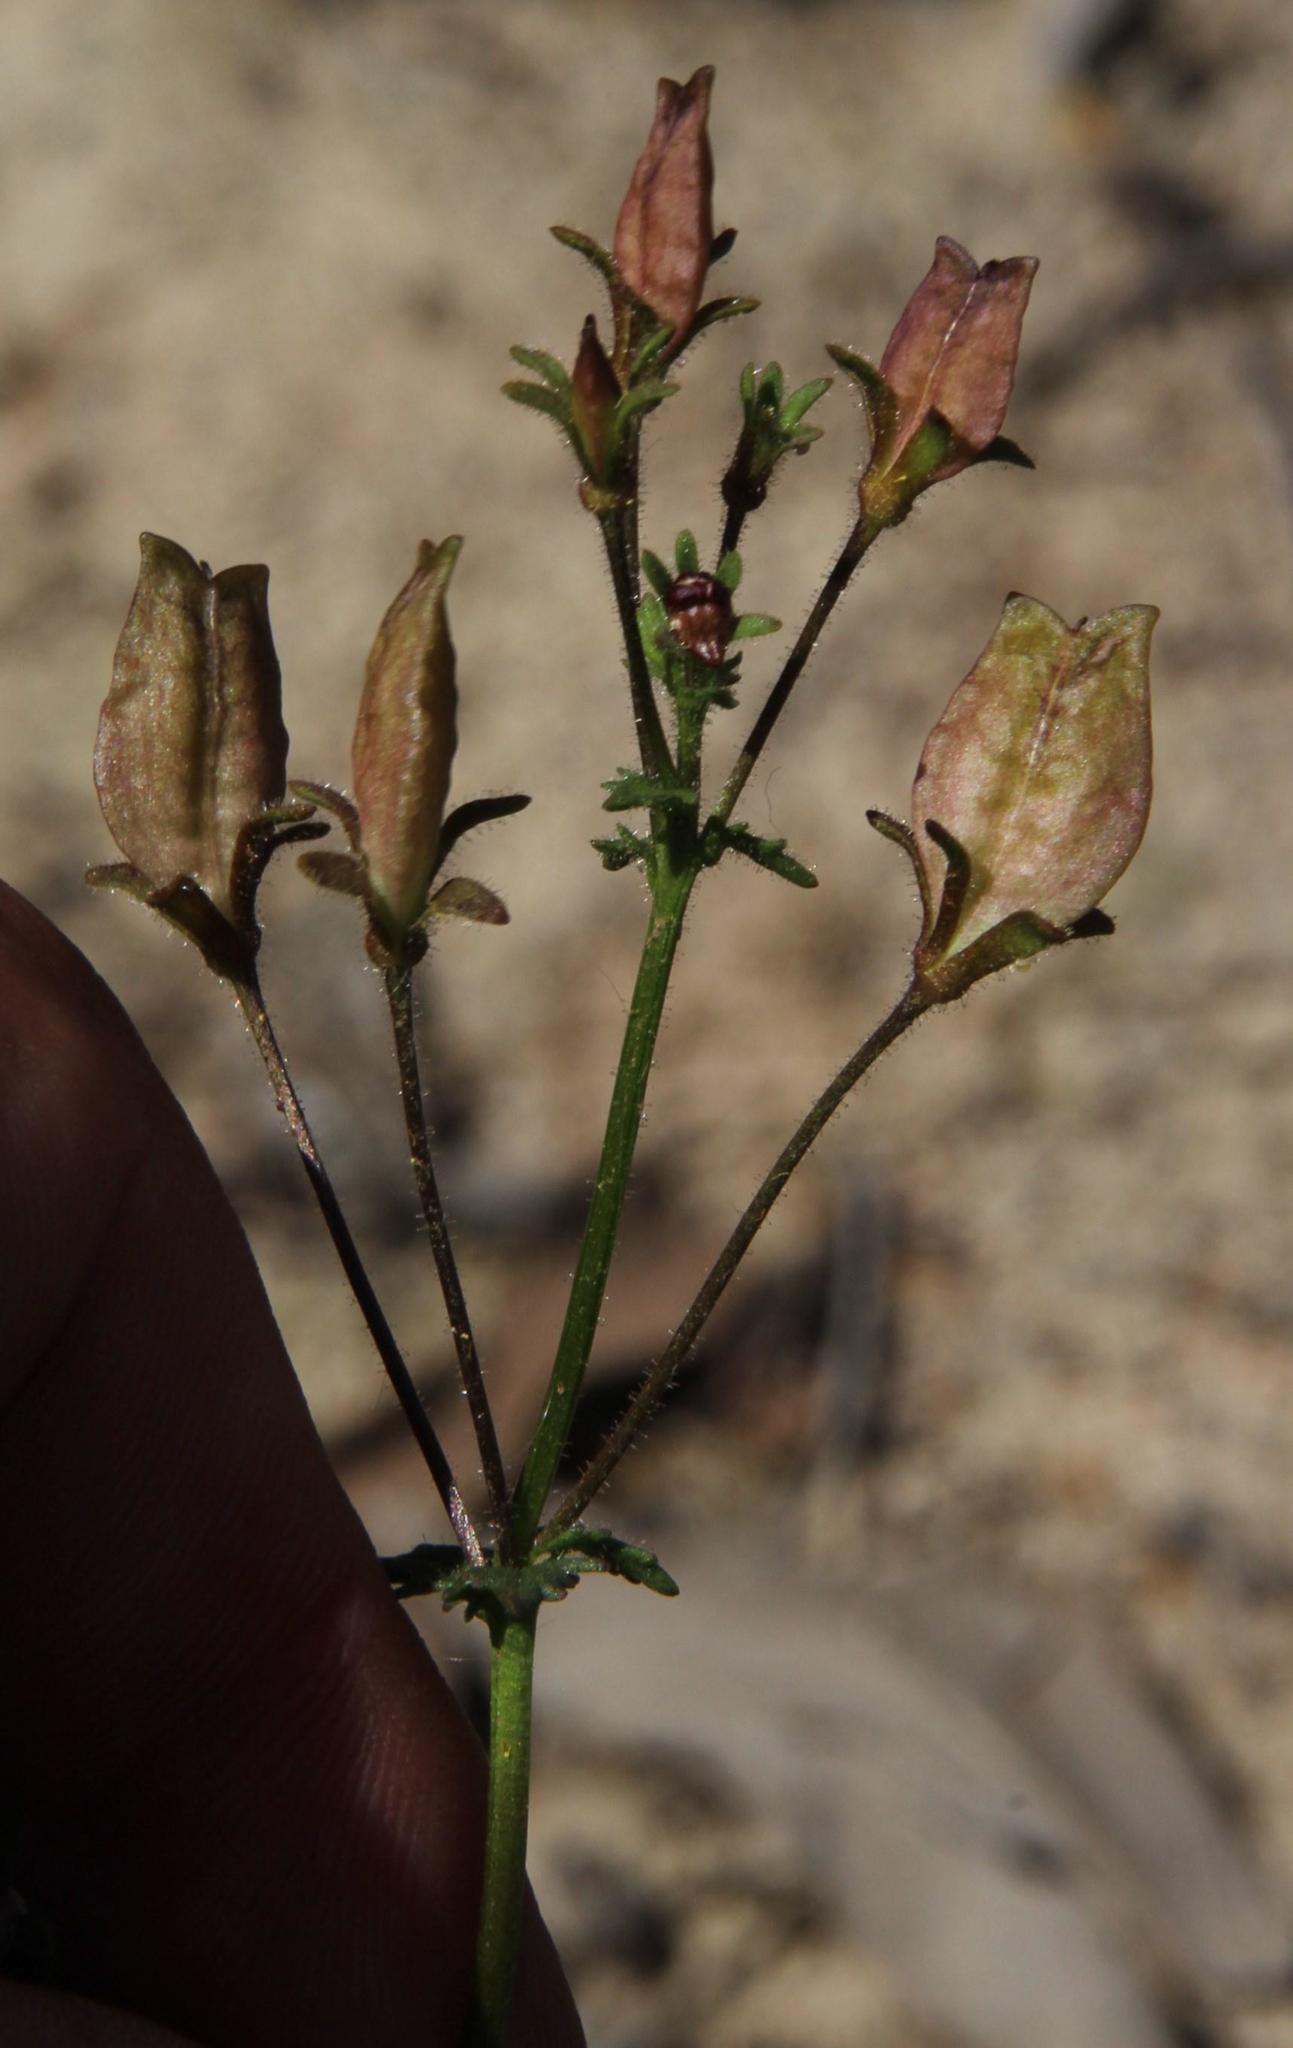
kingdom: Plantae
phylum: Tracheophyta
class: Magnoliopsida
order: Lamiales
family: Scrophulariaceae
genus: Nemesia
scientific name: Nemesia barbata
